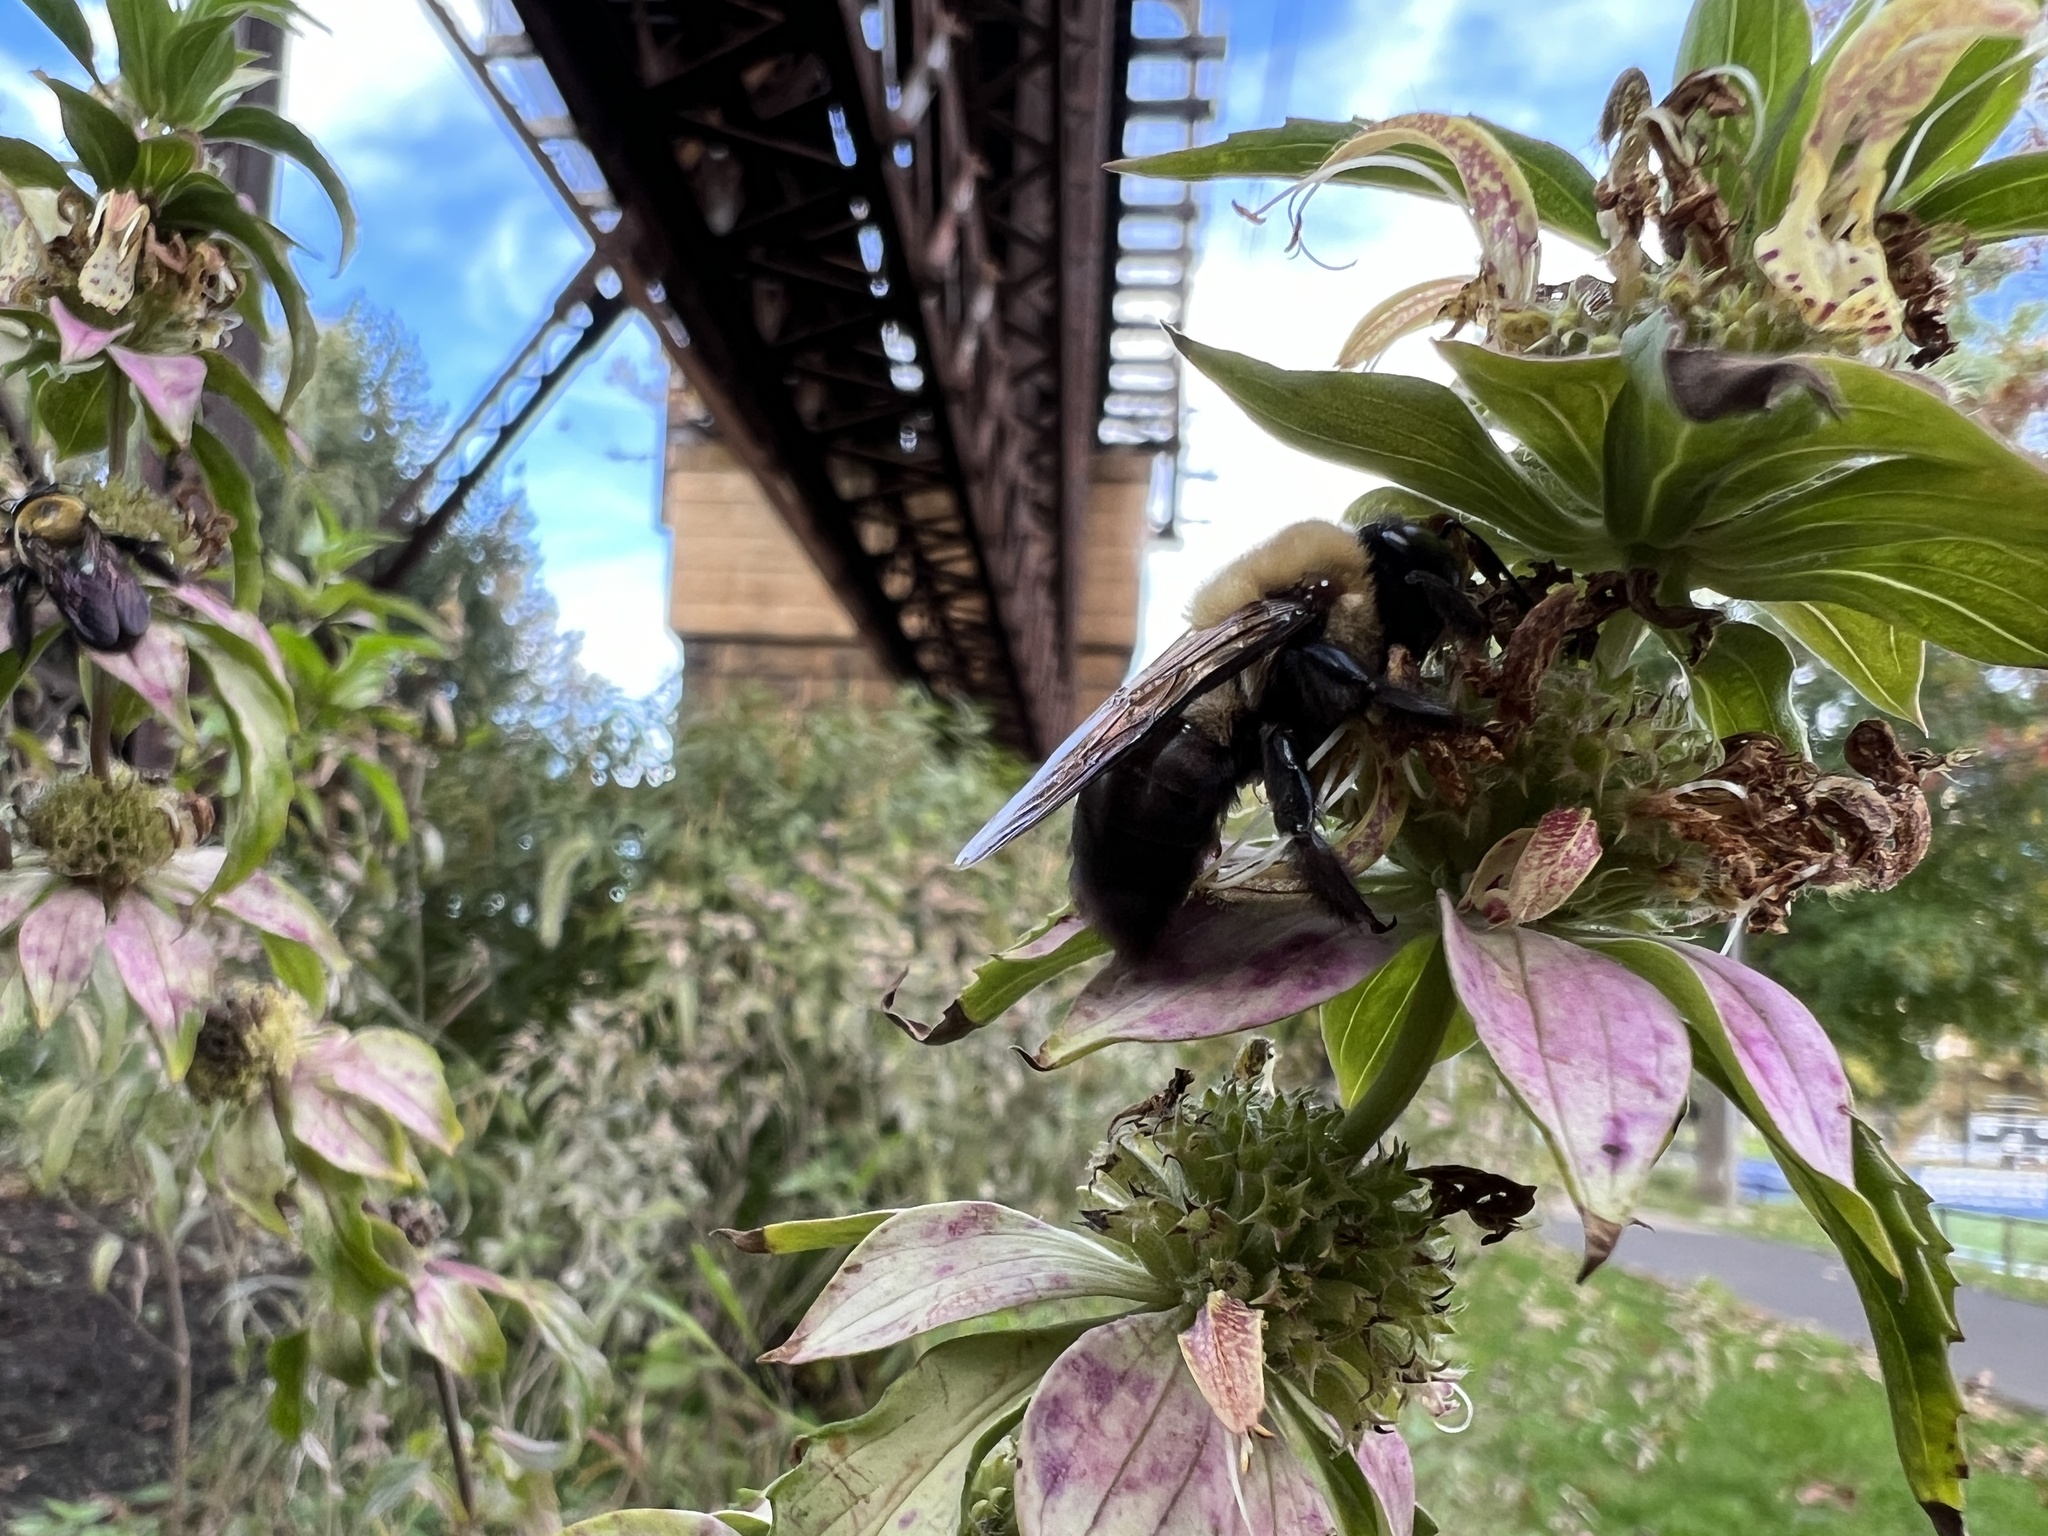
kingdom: Animalia
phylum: Arthropoda
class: Insecta
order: Hymenoptera
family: Apidae
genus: Xylocopa
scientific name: Xylocopa virginica
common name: Carpenter bee
